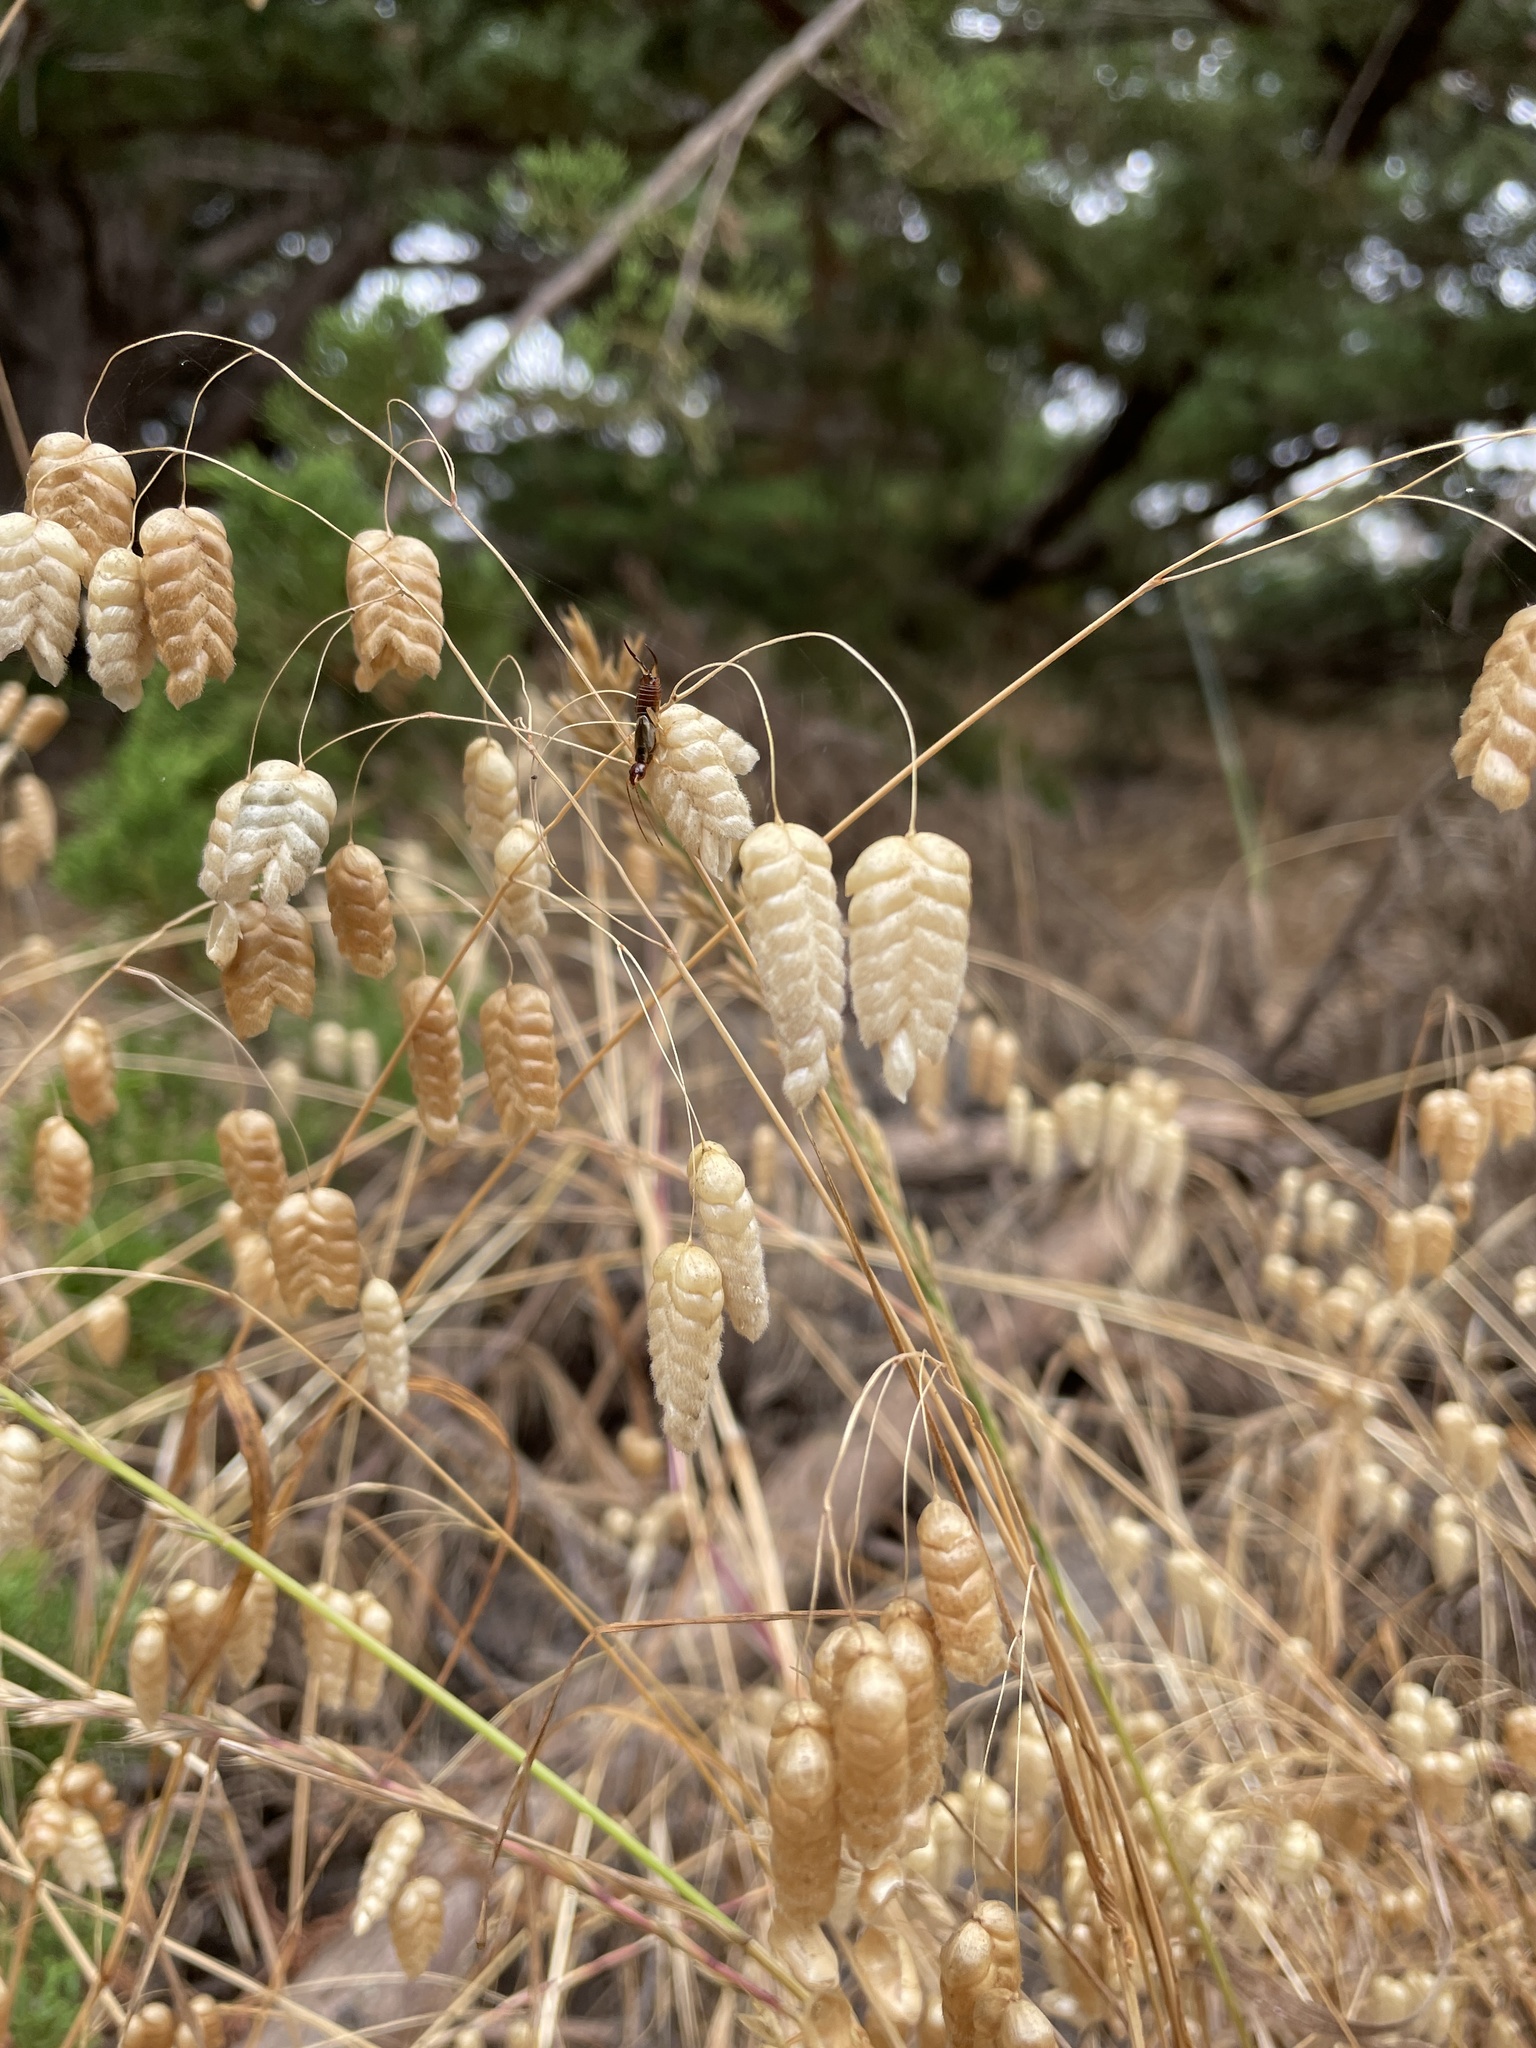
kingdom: Plantae
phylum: Tracheophyta
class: Liliopsida
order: Poales
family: Poaceae
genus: Briza
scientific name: Briza maxima
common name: Big quakinggrass
